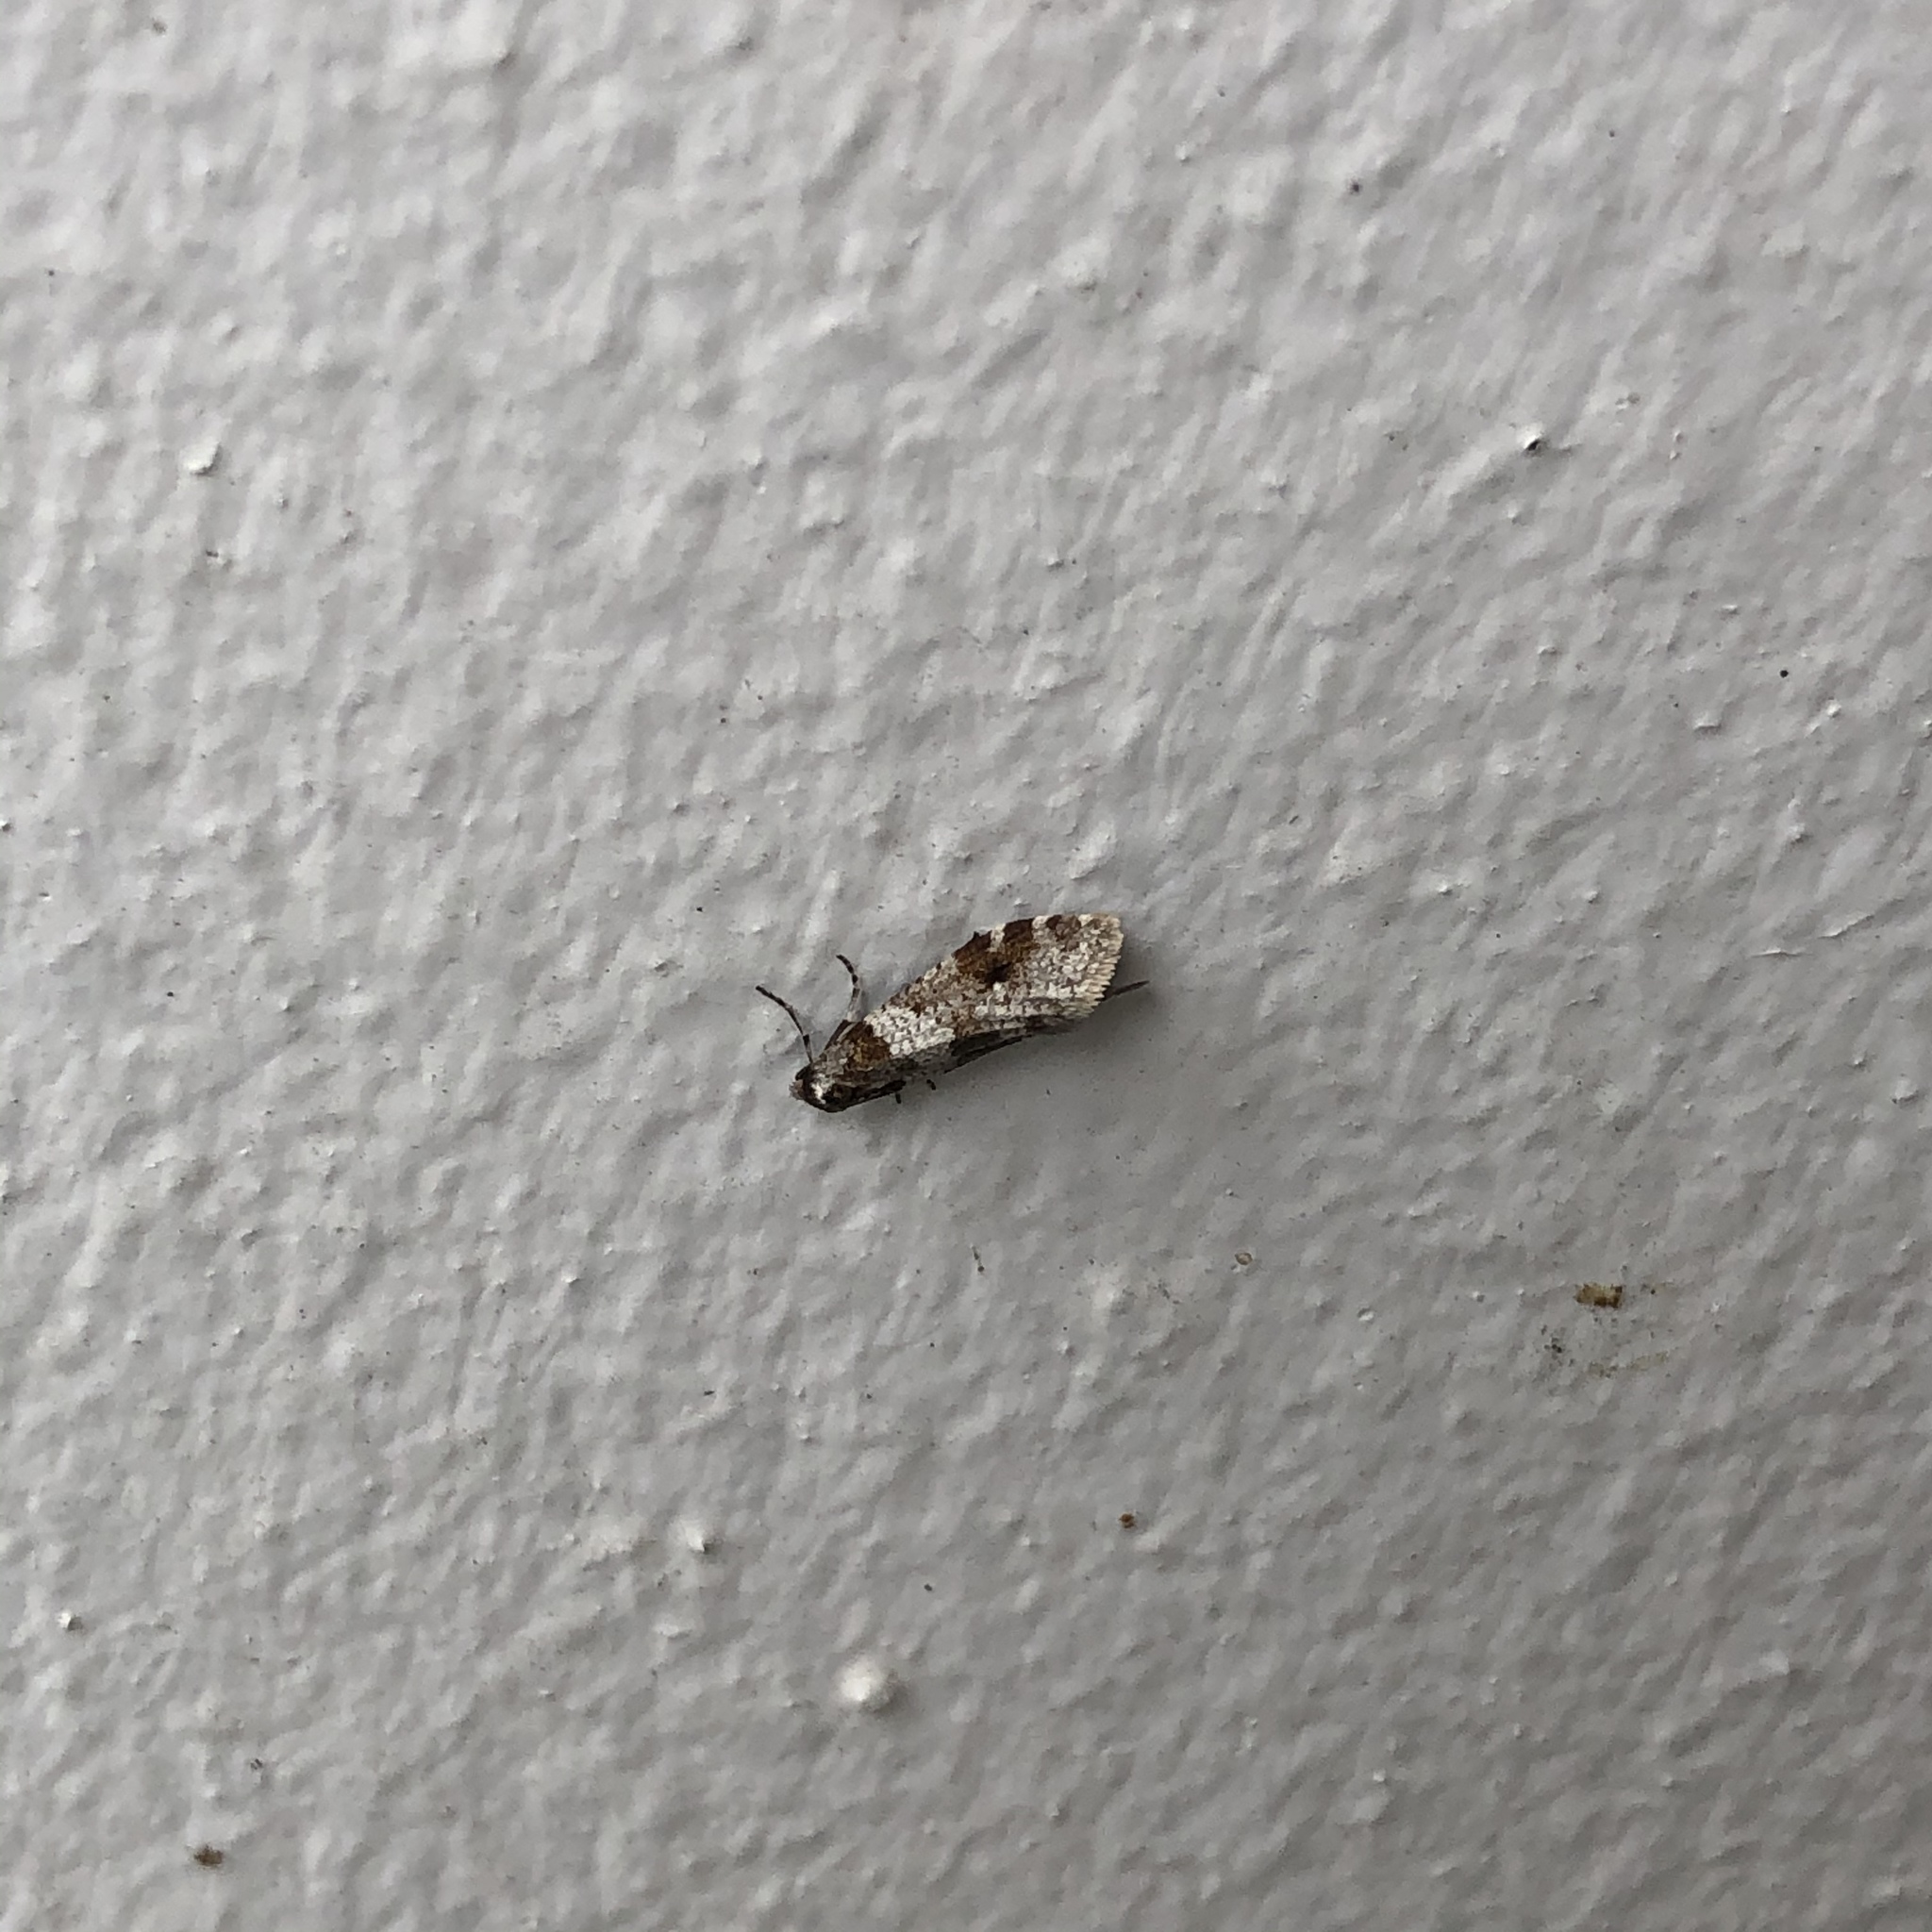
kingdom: Animalia
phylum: Arthropoda
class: Insecta
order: Lepidoptera
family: Psychidae
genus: Lepidoscia
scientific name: Lepidoscia heliochares
